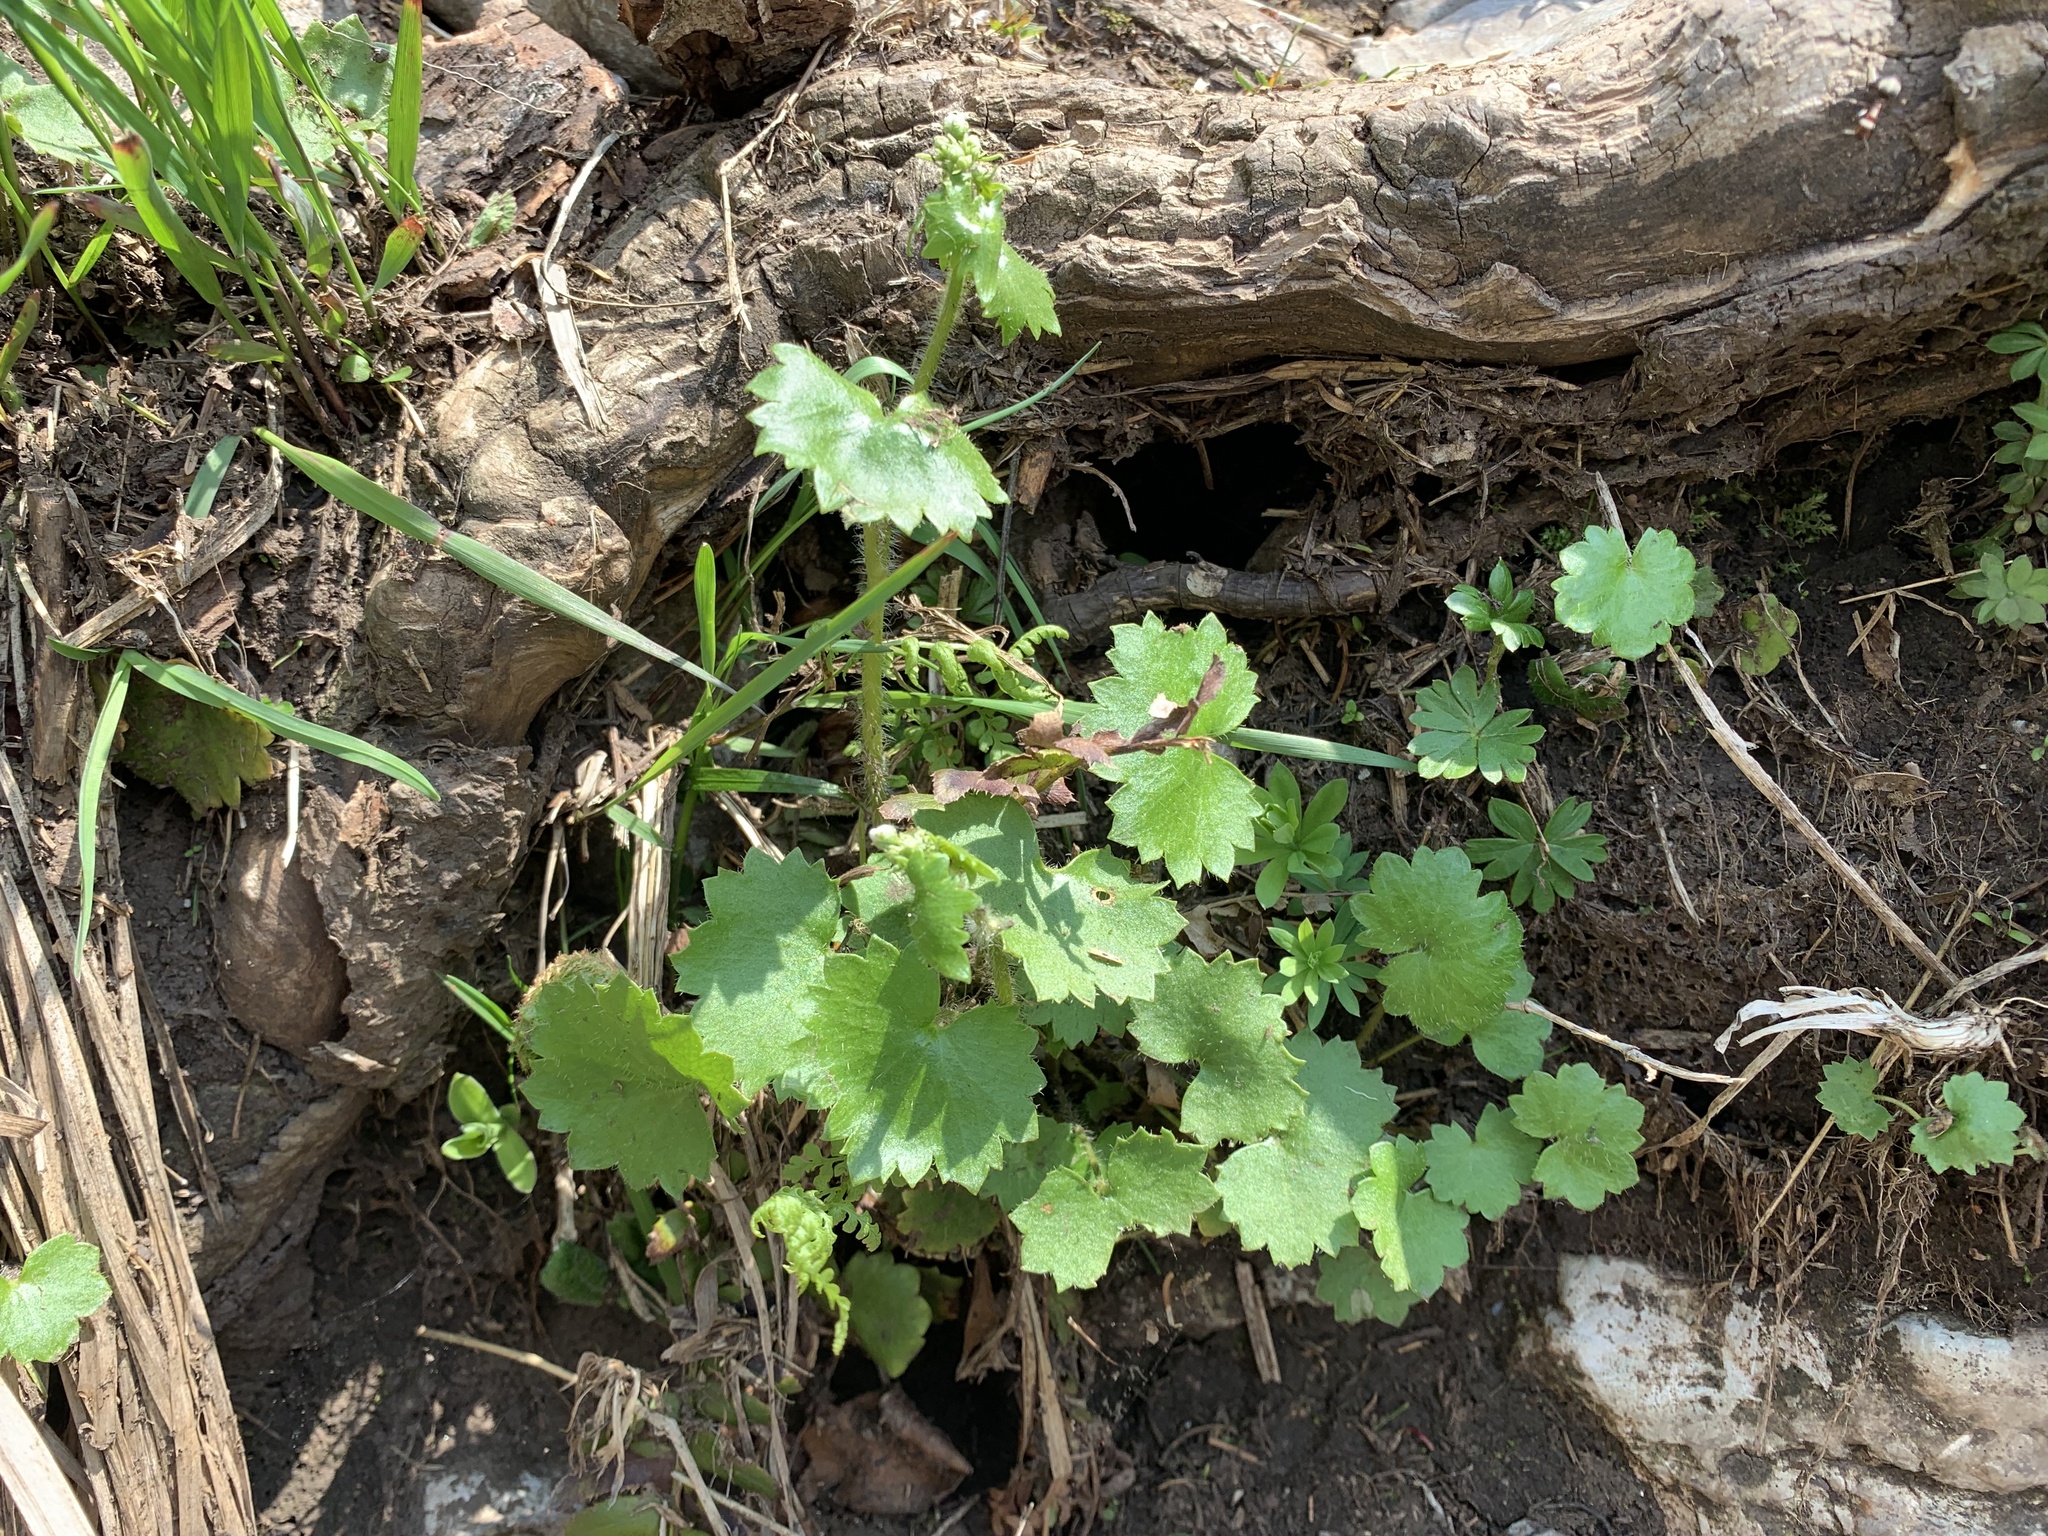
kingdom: Plantae
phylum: Tracheophyta
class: Magnoliopsida
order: Saxifragales
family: Saxifragaceae
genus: Saxifraga
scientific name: Saxifraga rotundifolia
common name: Round-leaved saxifrage
